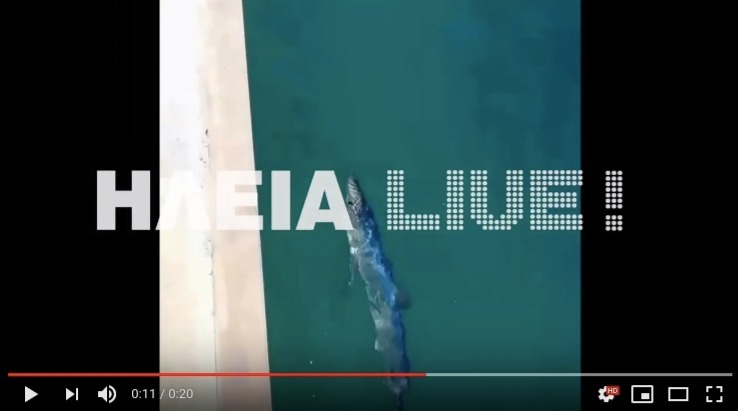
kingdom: Animalia
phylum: Chordata
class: Elasmobranchii
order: Carcharhiniformes
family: Carcharhinidae
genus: Prionace
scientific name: Prionace glauca
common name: Blue shark
